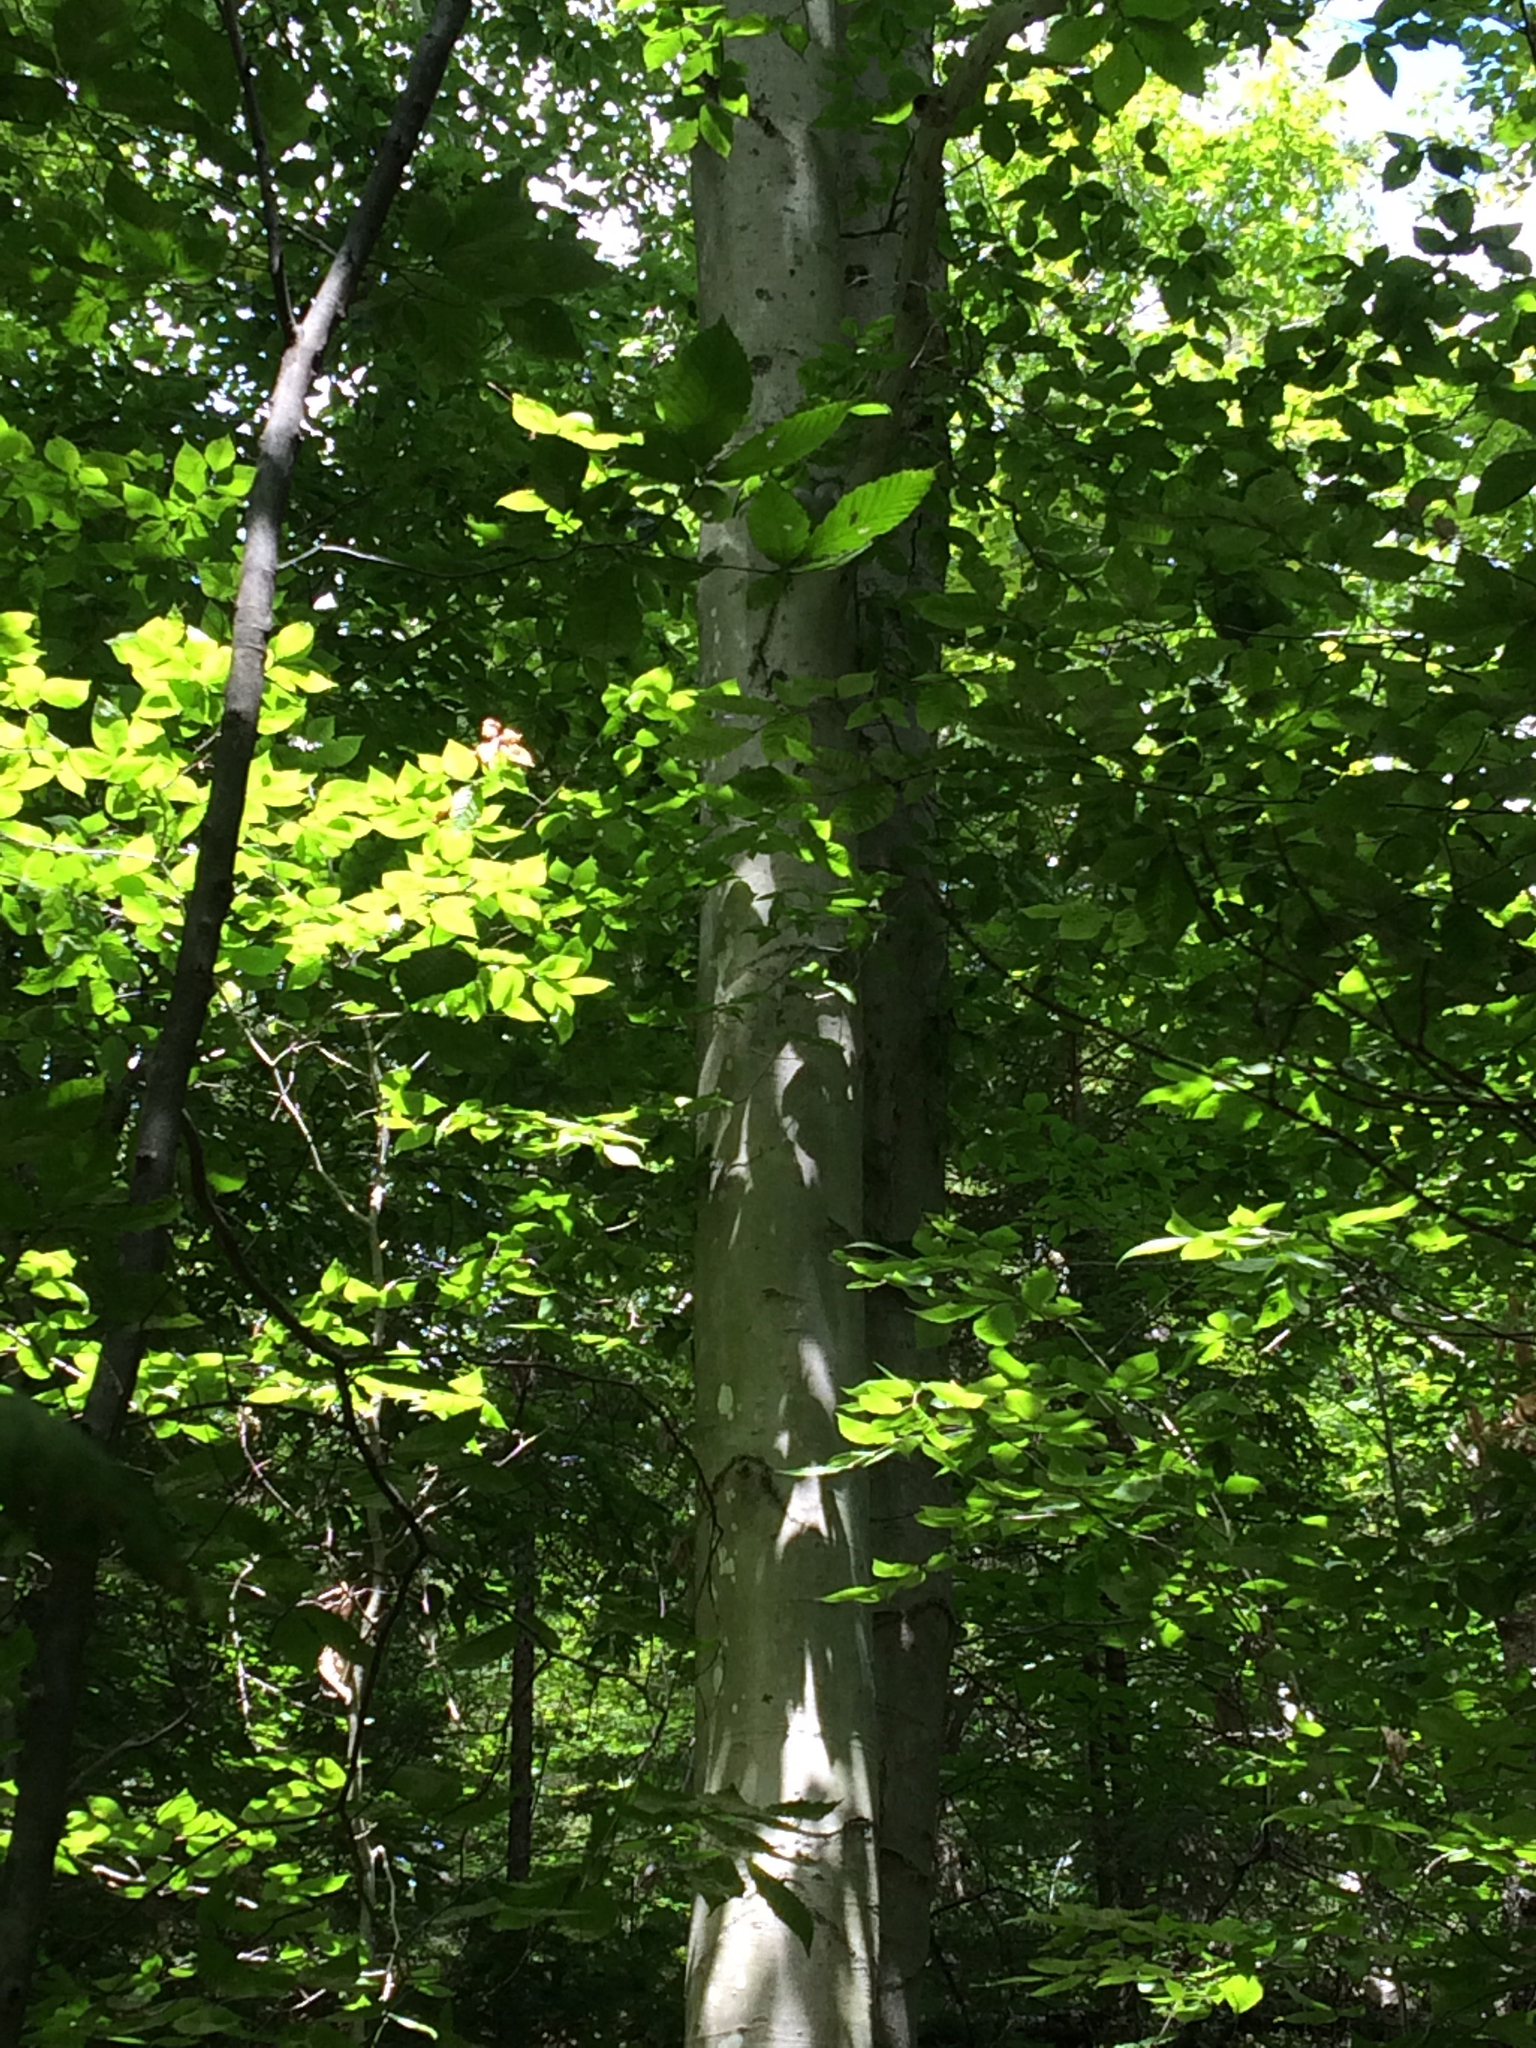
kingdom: Plantae
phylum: Tracheophyta
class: Magnoliopsida
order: Fagales
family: Fagaceae
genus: Fagus
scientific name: Fagus grandifolia
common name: American beech
